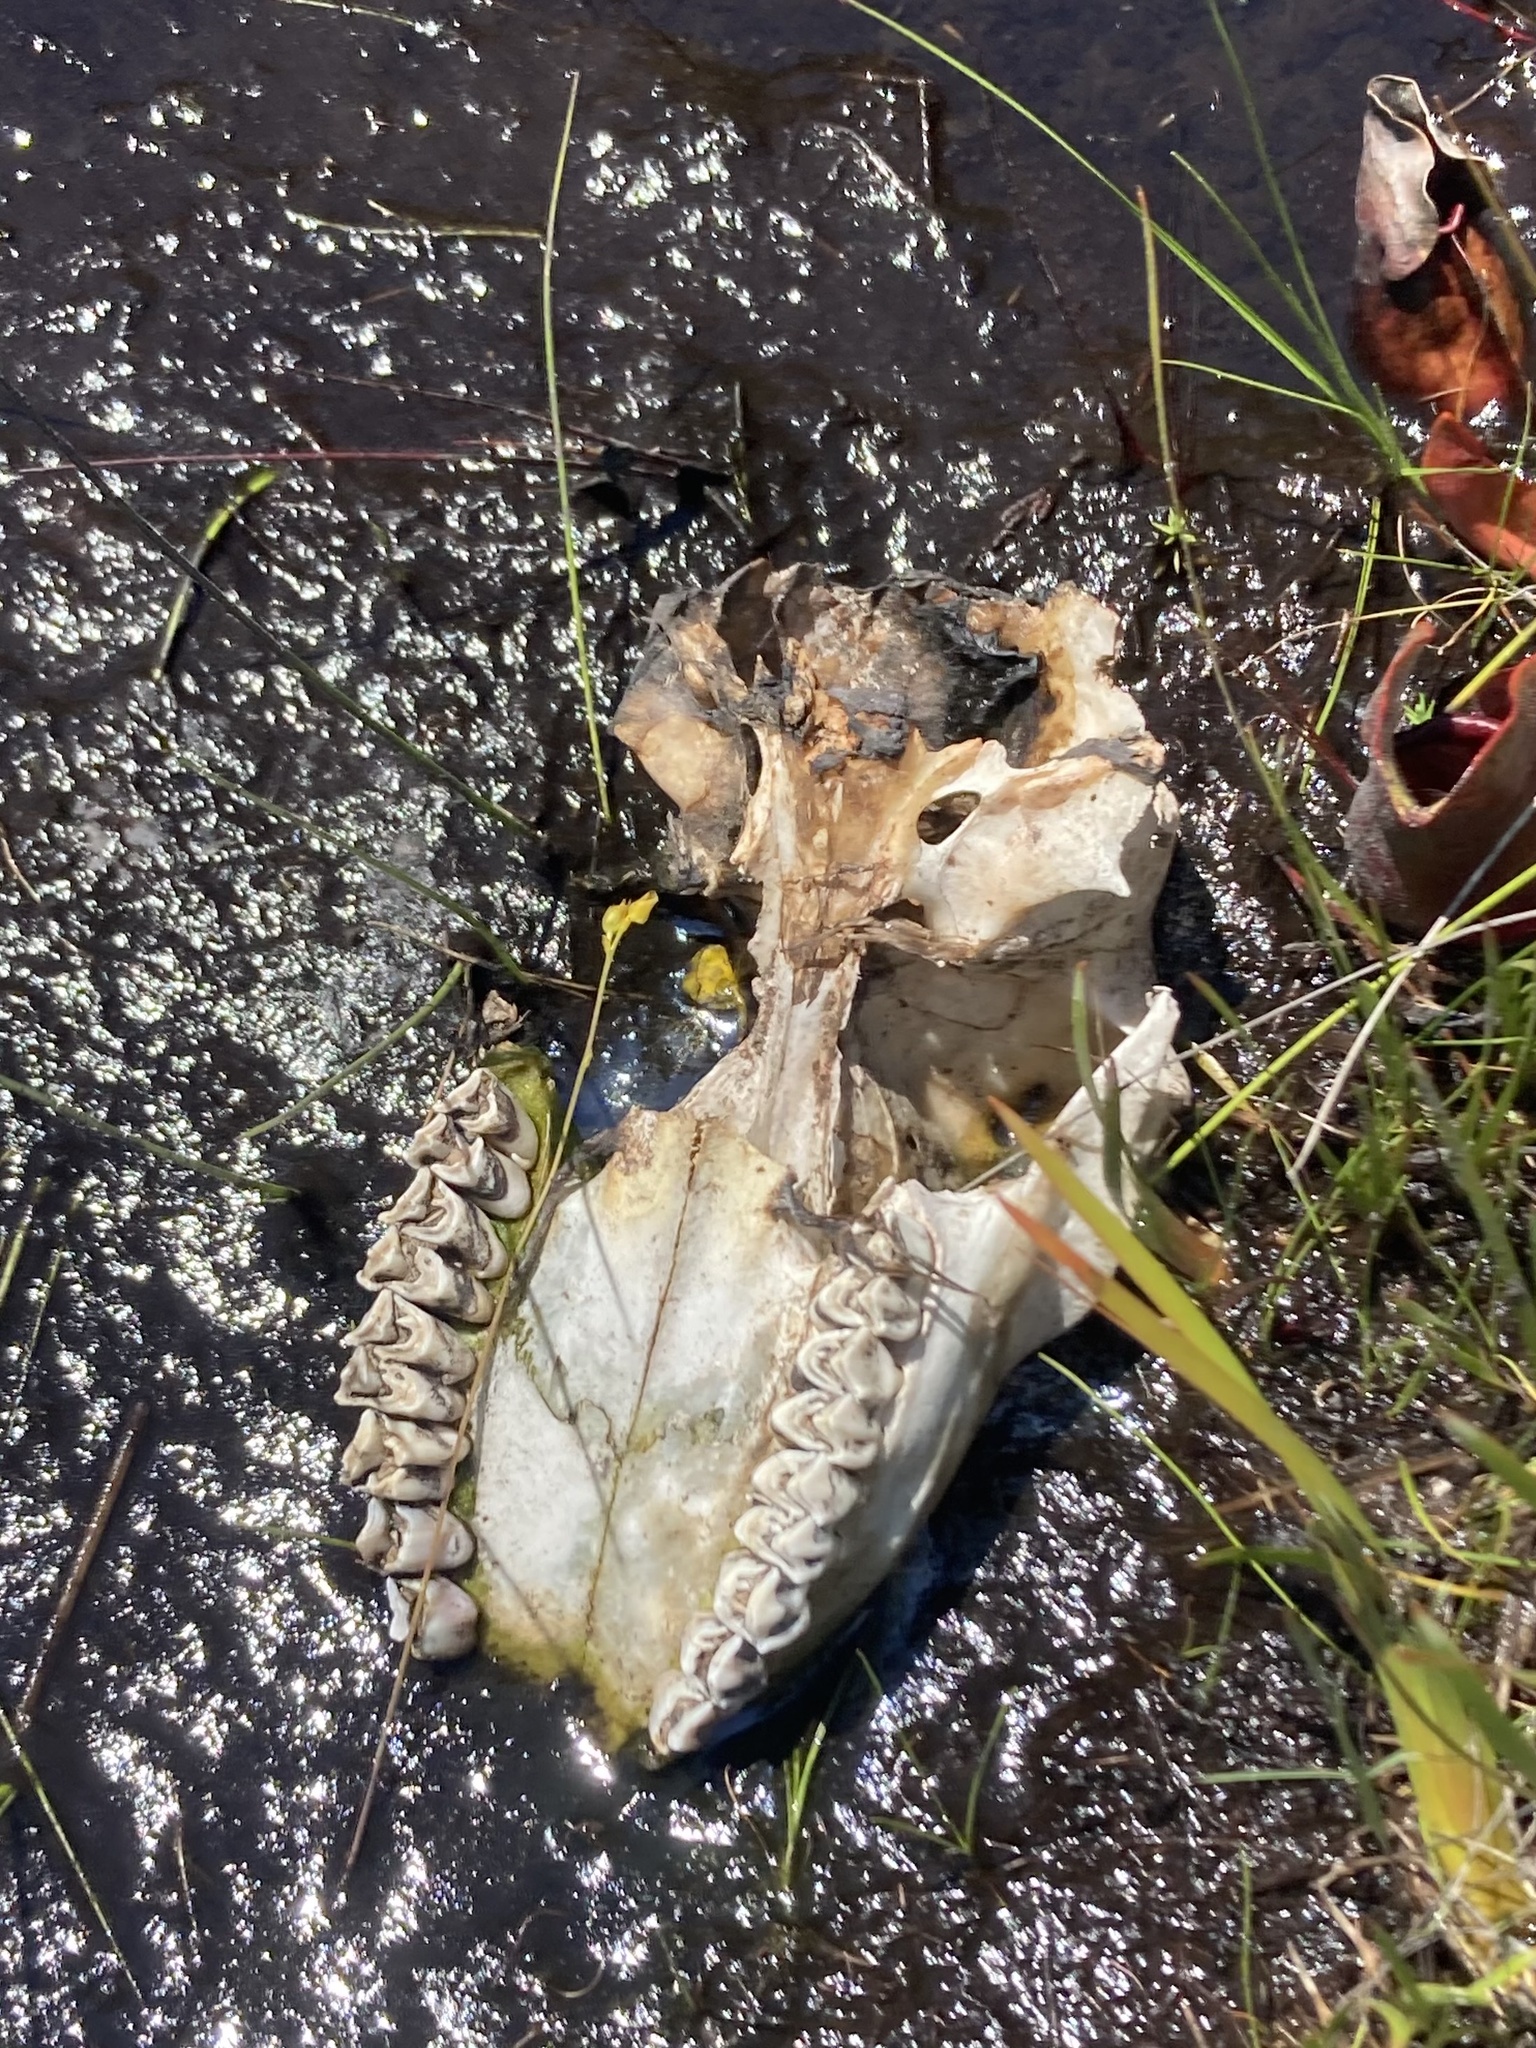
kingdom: Animalia
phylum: Chordata
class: Mammalia
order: Artiodactyla
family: Cervidae
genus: Odocoileus
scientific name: Odocoileus virginianus
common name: White-tailed deer
